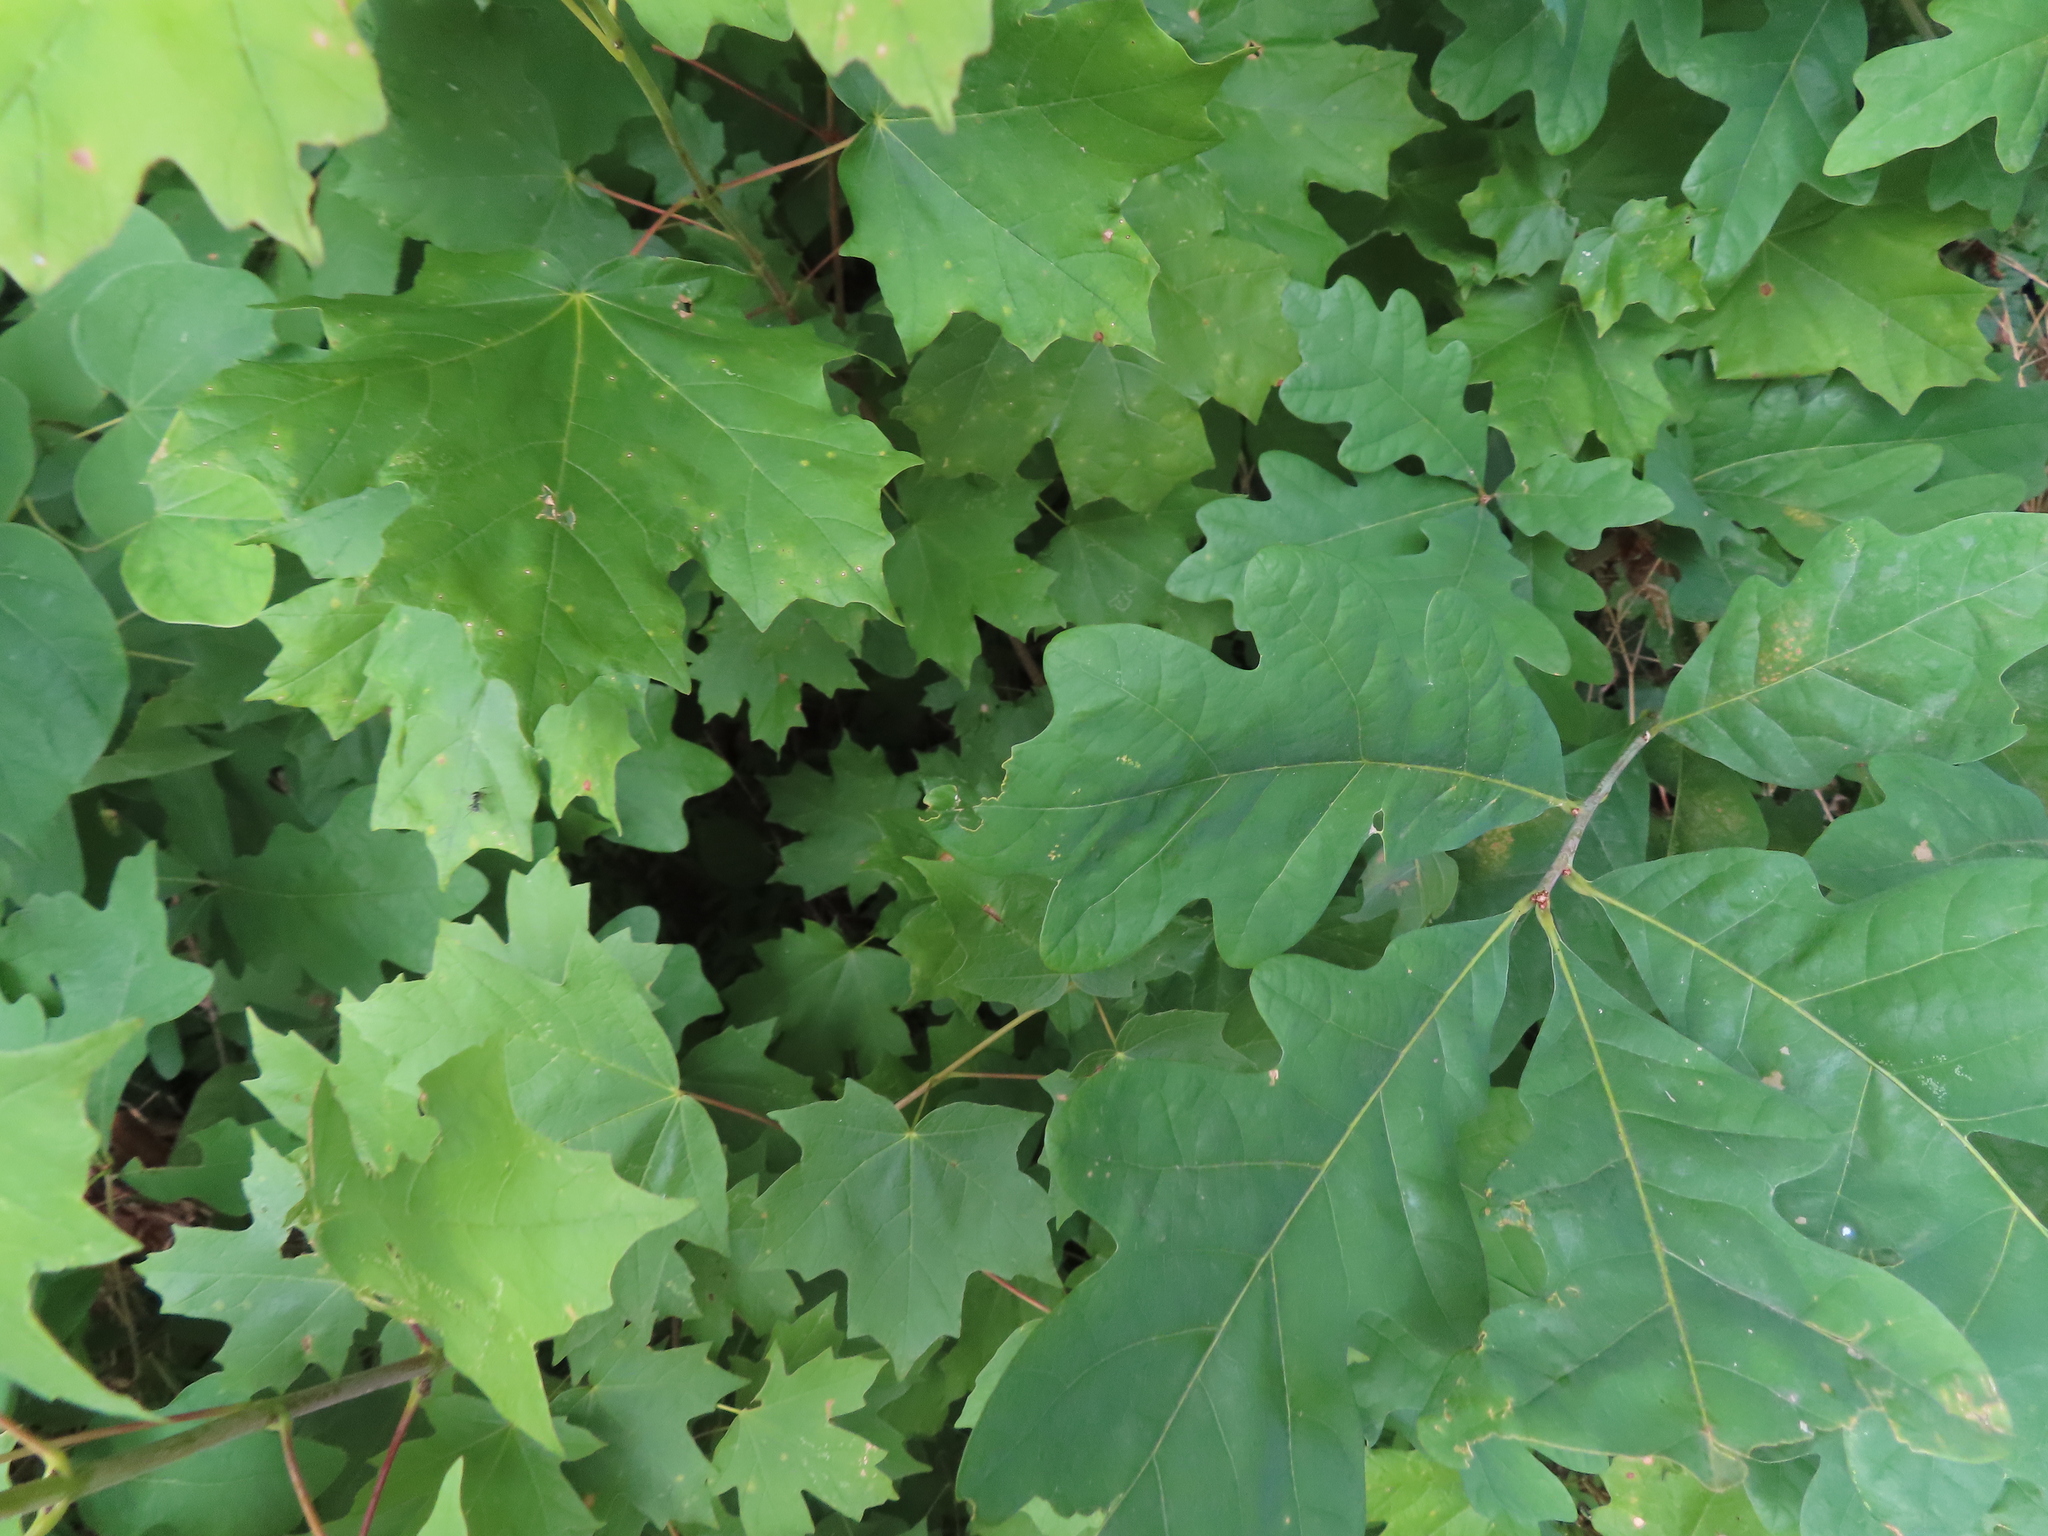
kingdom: Plantae
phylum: Tracheophyta
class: Magnoliopsida
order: Fagales
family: Fagaceae
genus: Quercus
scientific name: Quercus alba
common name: White oak
